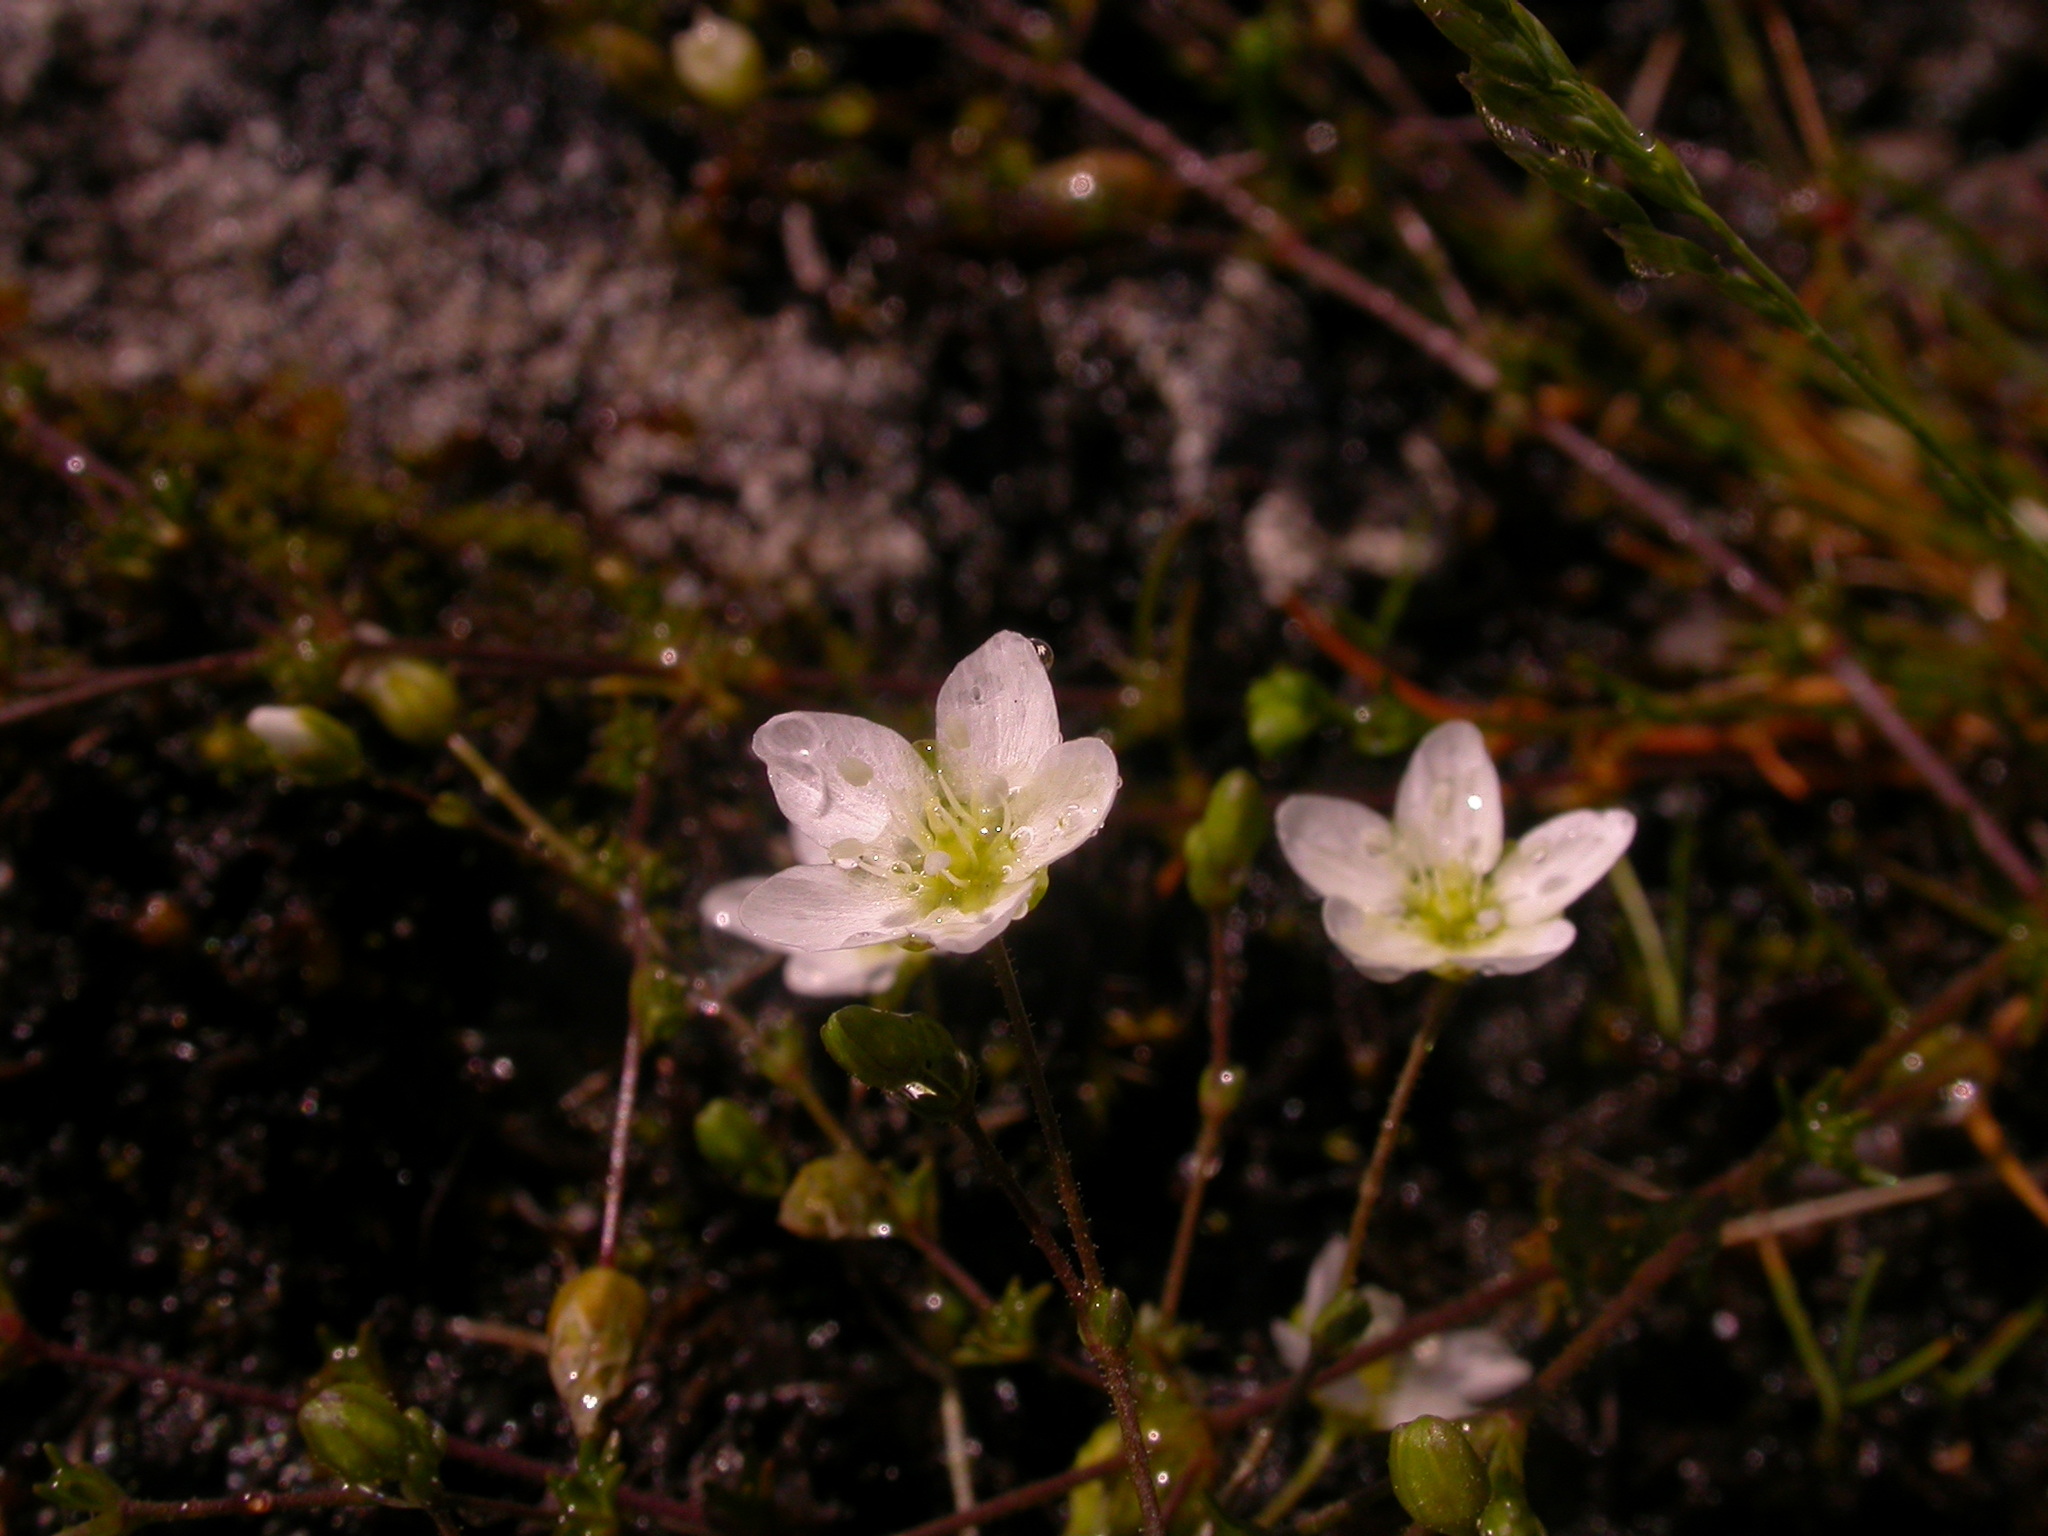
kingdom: Plantae
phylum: Tracheophyta
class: Magnoliopsida
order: Caryophyllales
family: Caryophyllaceae
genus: Sagina
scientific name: Sagina nodosa
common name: Knotted pearlwort
